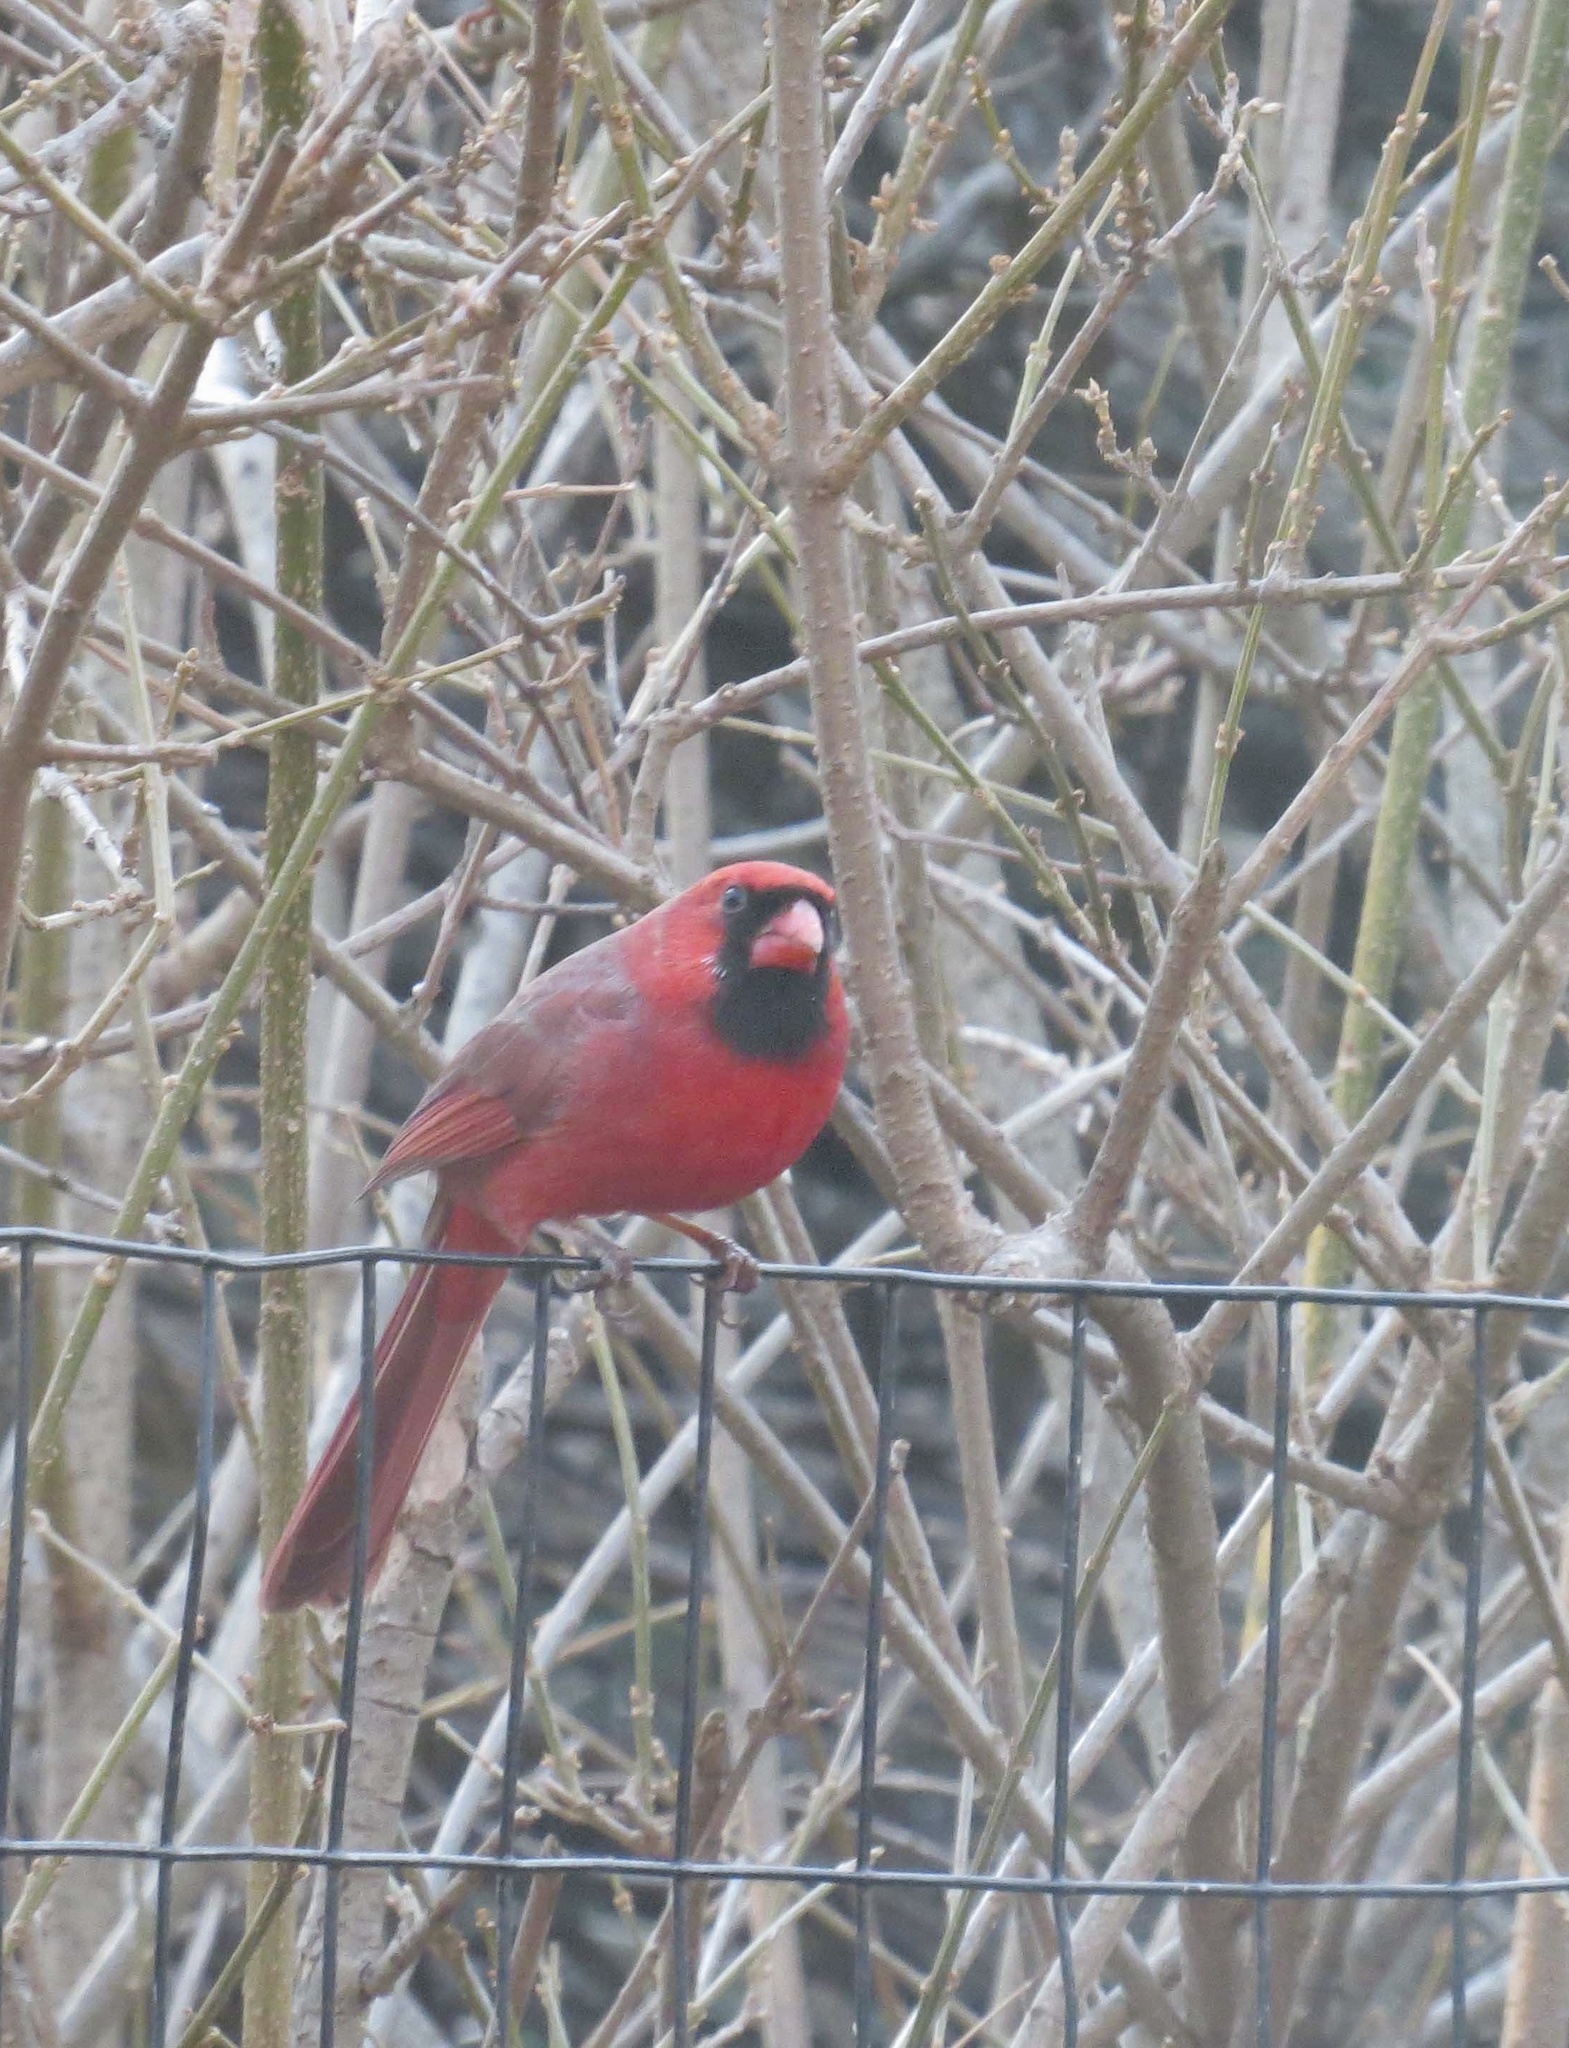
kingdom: Animalia
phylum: Chordata
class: Aves
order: Passeriformes
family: Cardinalidae
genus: Cardinalis
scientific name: Cardinalis cardinalis
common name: Northern cardinal
